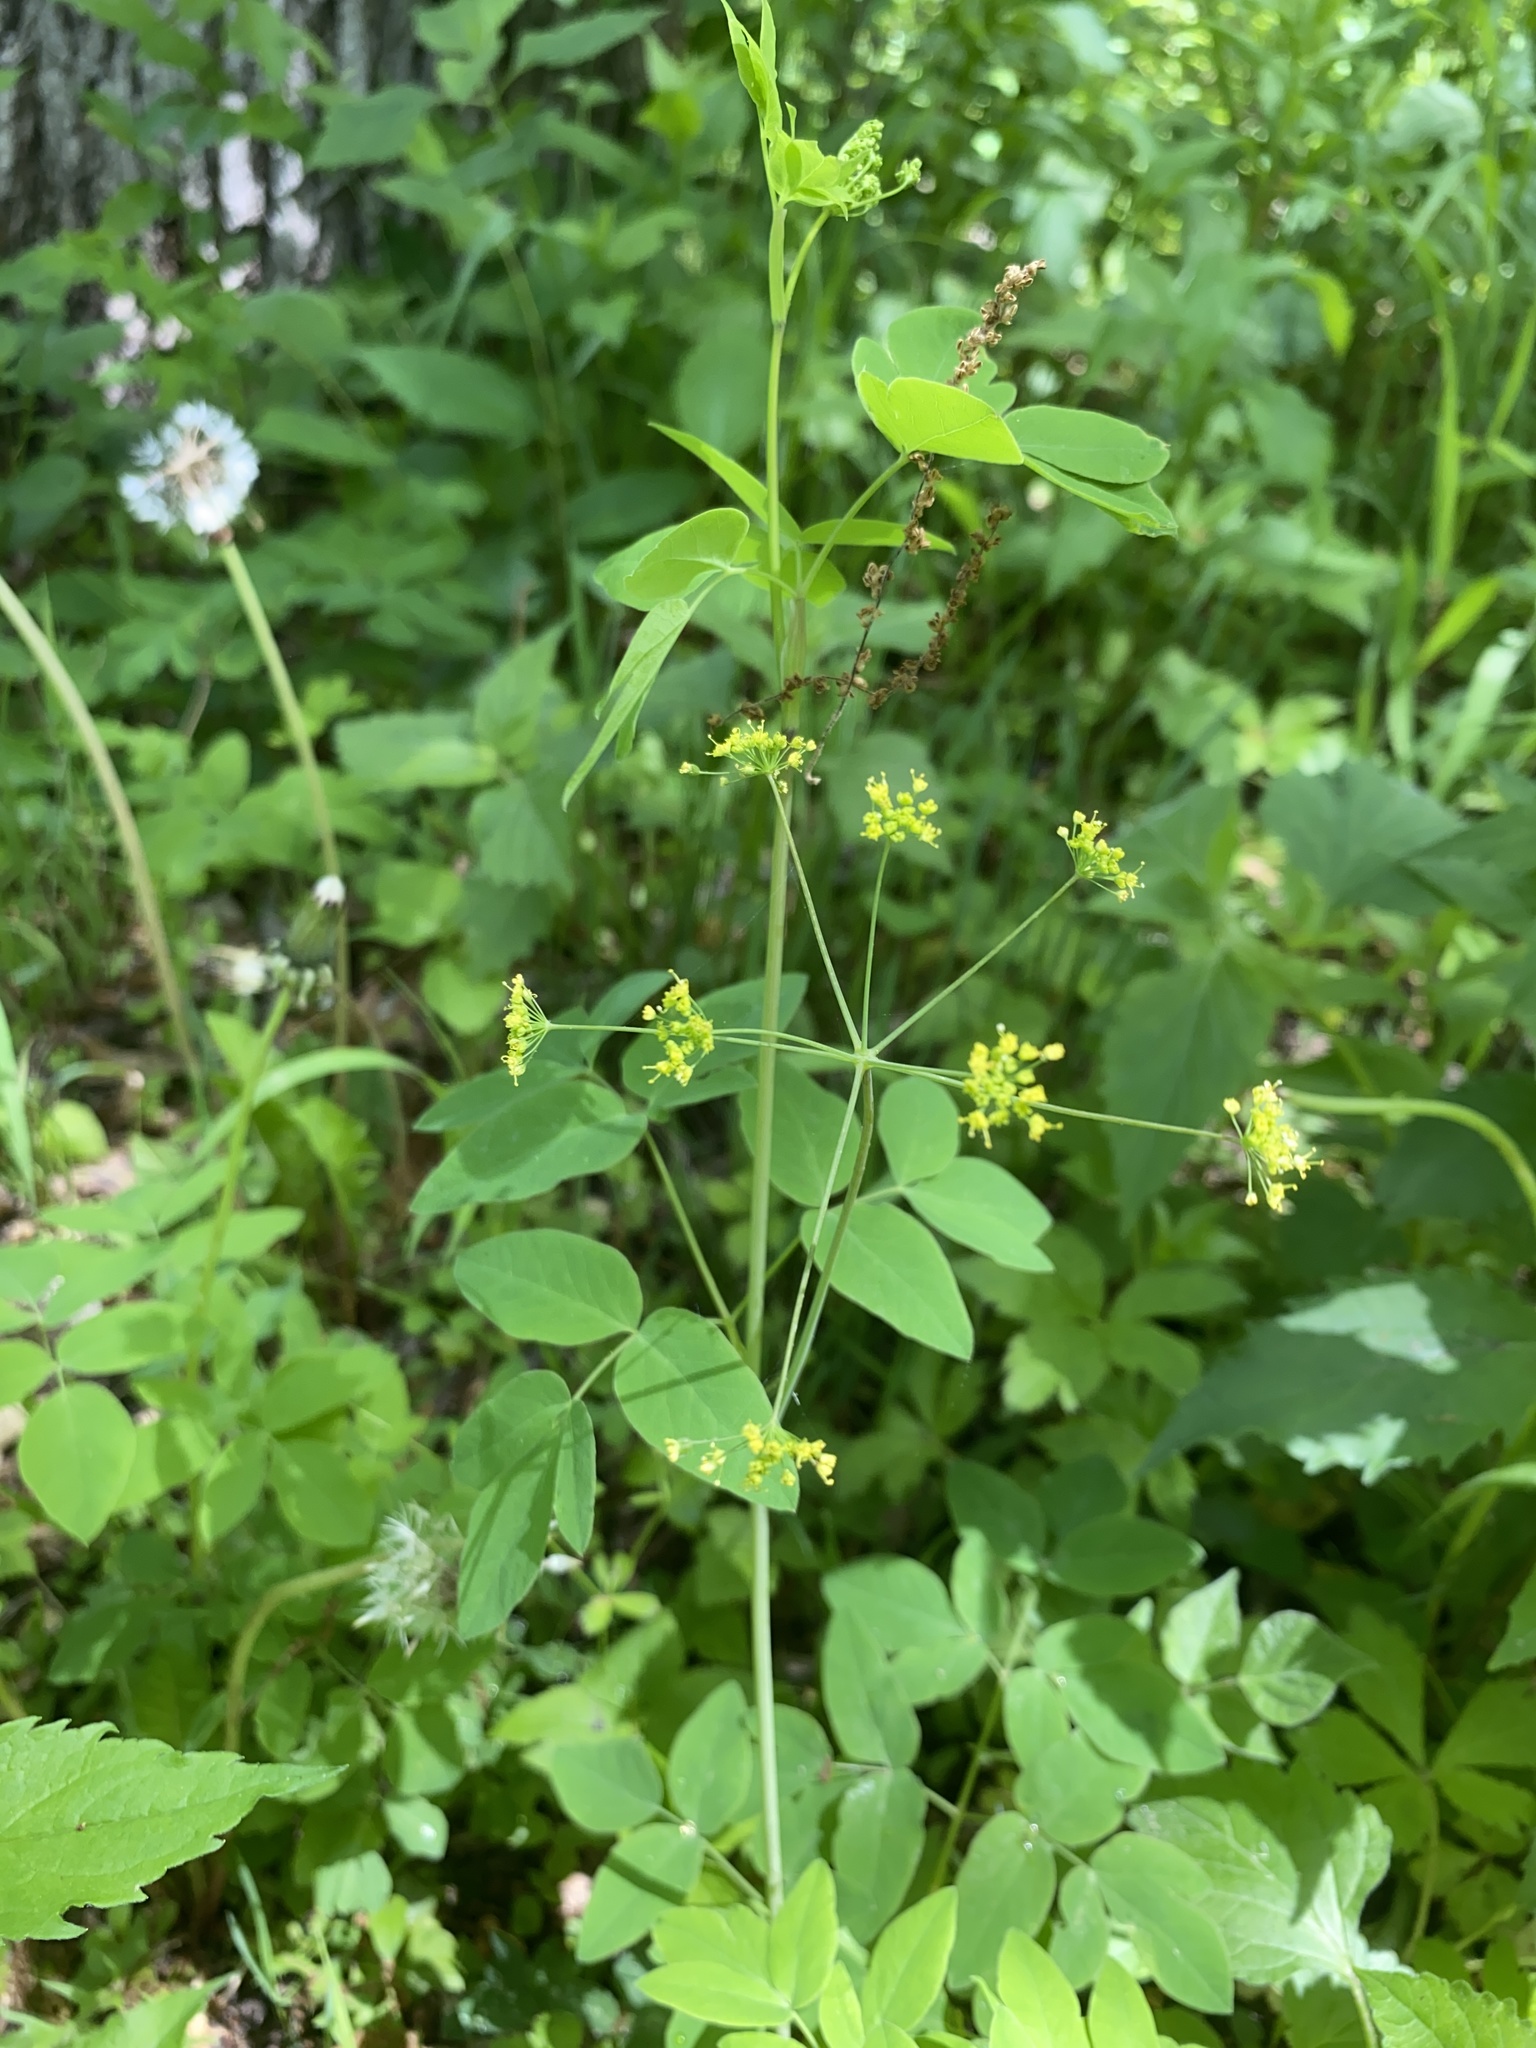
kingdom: Plantae
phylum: Tracheophyta
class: Magnoliopsida
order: Apiales
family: Apiaceae
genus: Taenidia
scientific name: Taenidia integerrima
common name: Golden alexander
